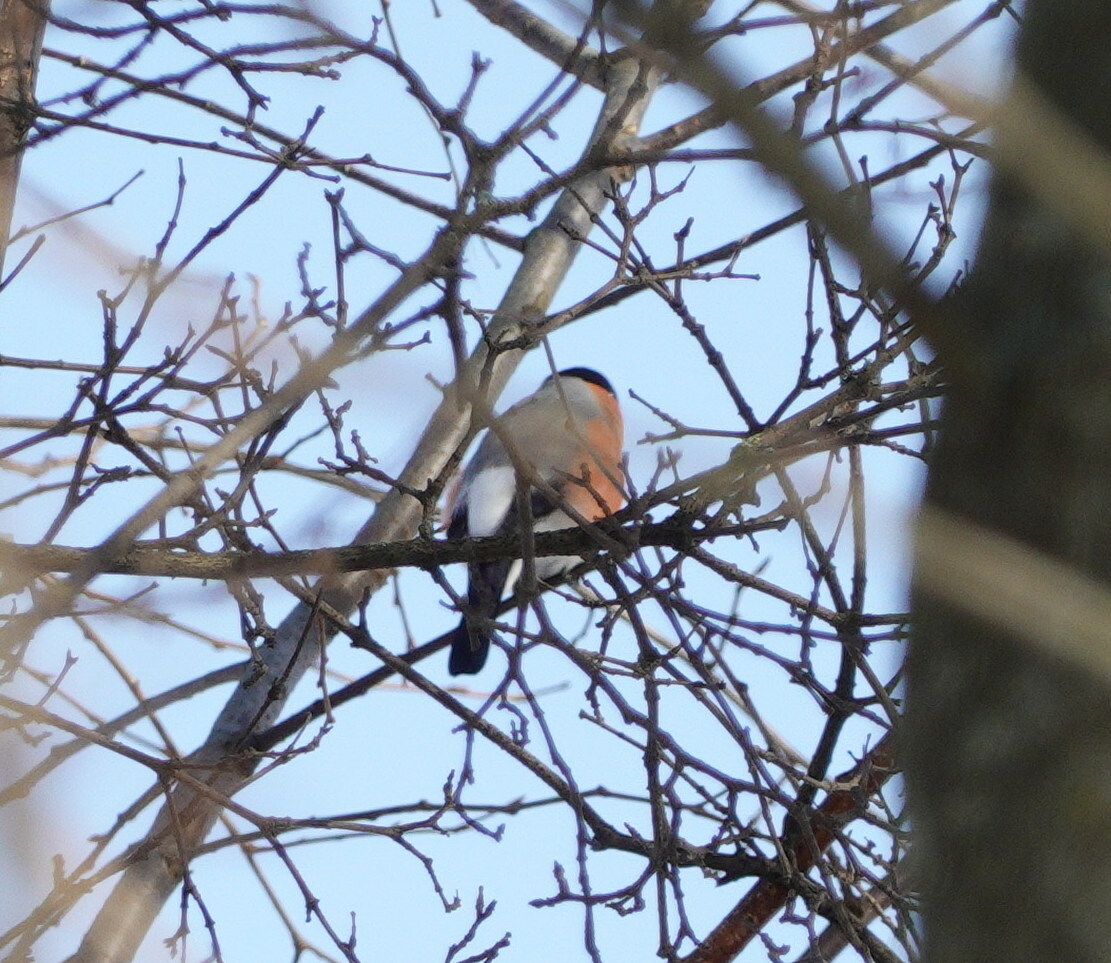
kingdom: Animalia
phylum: Chordata
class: Aves
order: Passeriformes
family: Fringillidae
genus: Pyrrhula
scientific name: Pyrrhula pyrrhula
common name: Eurasian bullfinch
